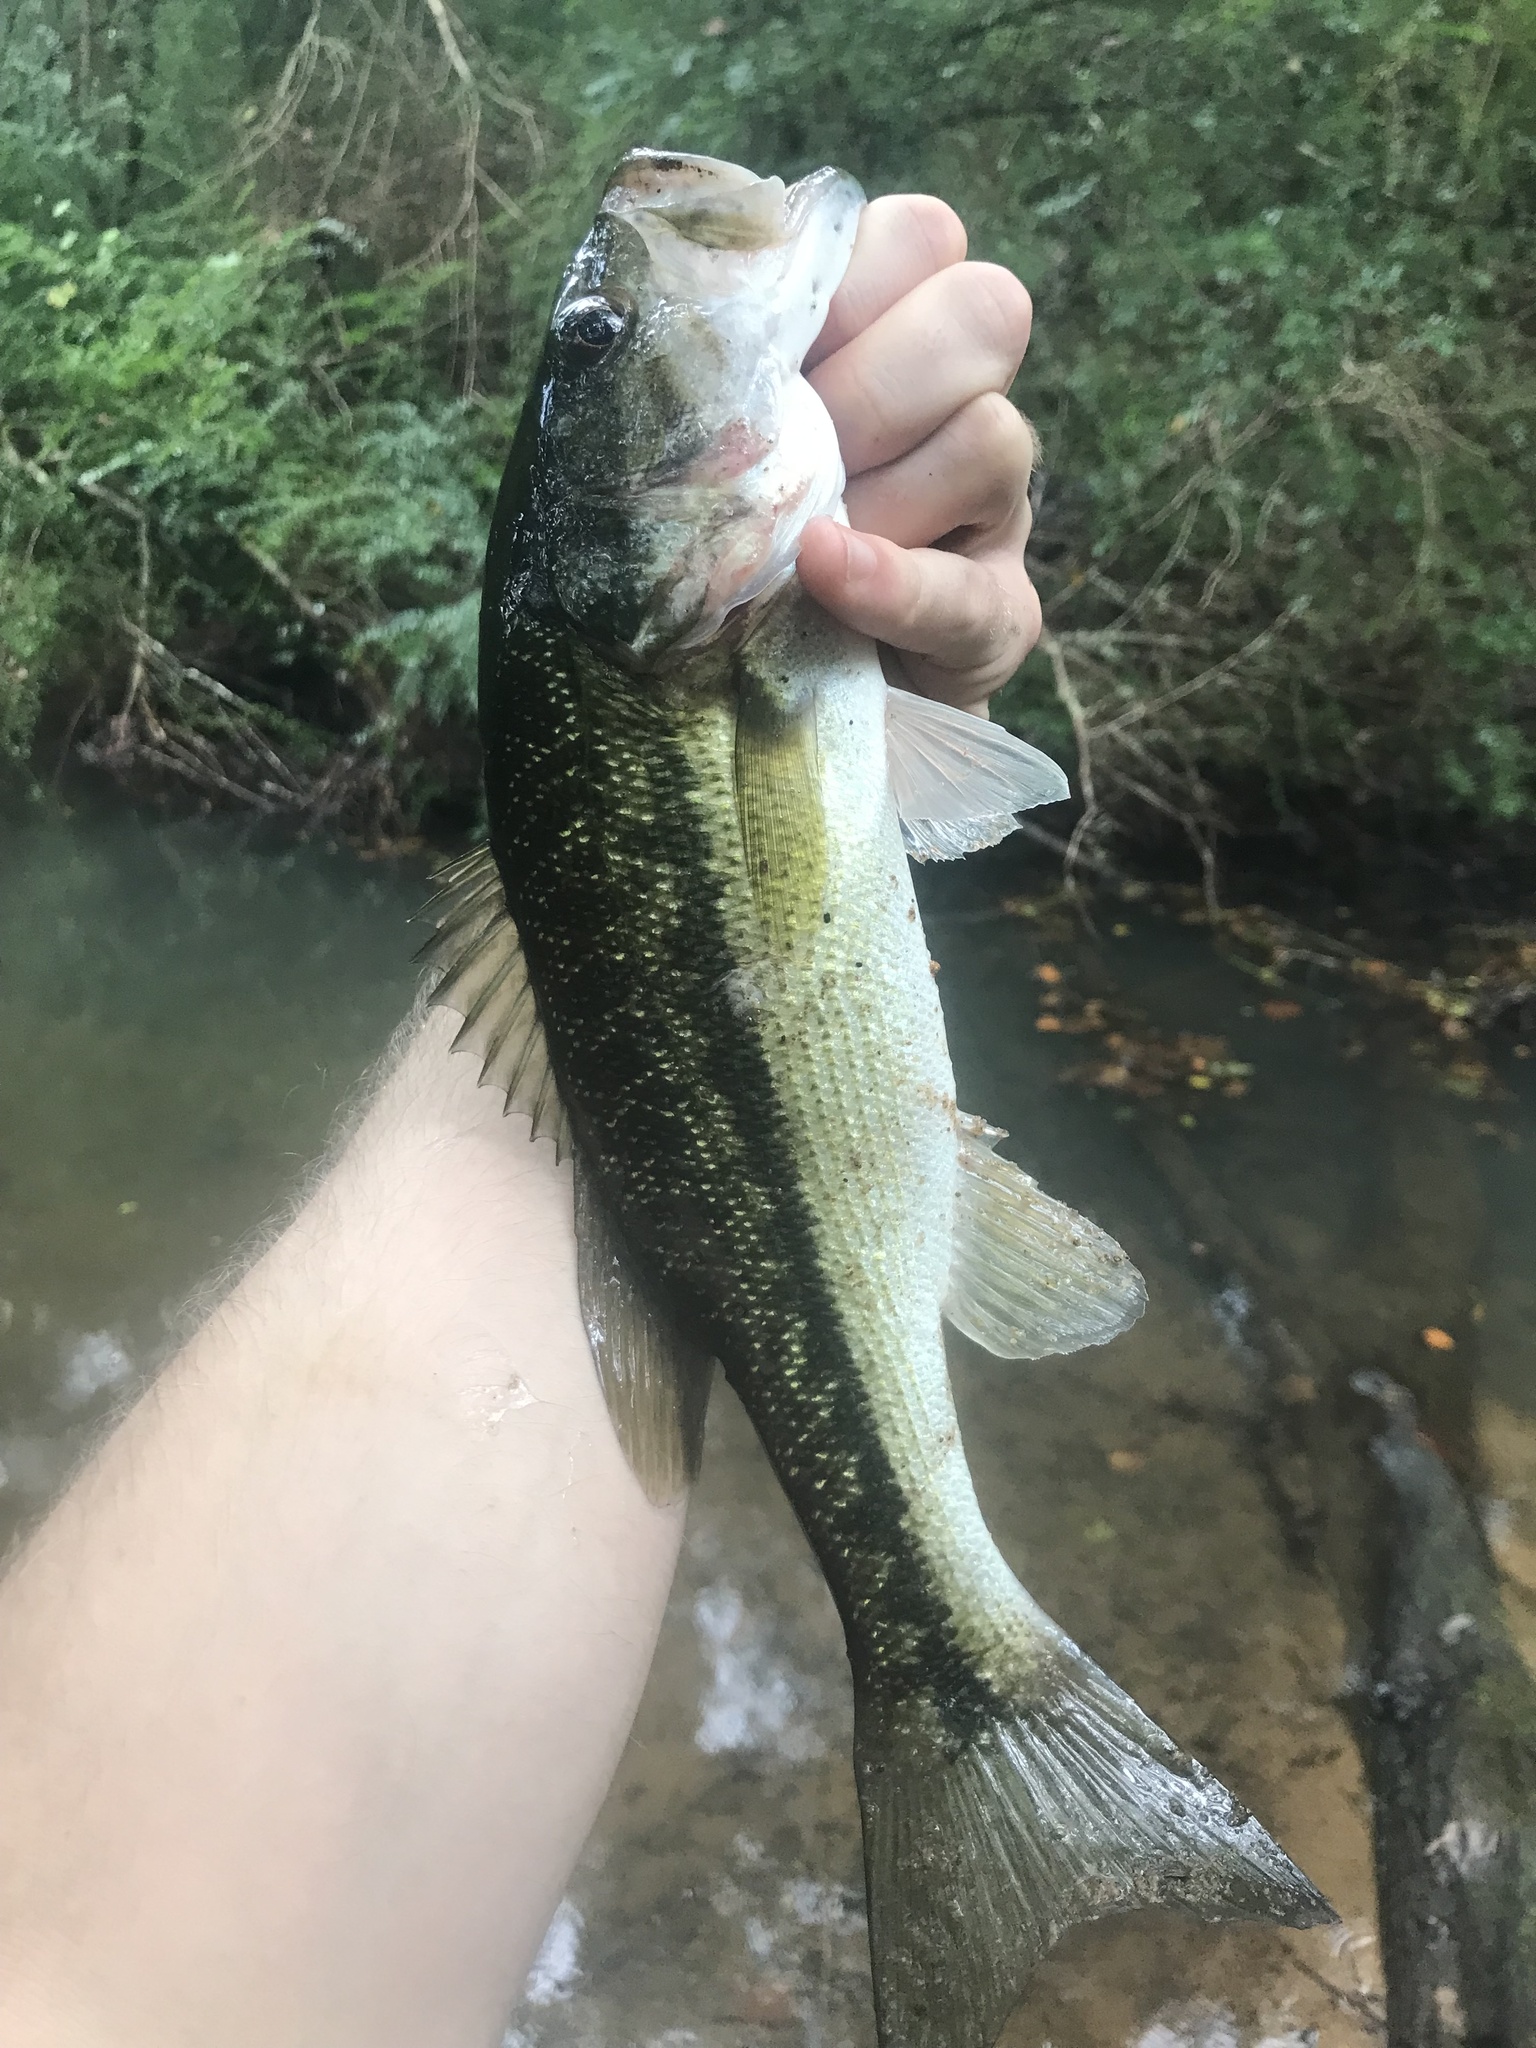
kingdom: Animalia
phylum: Chordata
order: Perciformes
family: Centrarchidae
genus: Micropterus
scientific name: Micropterus henshalli
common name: Alabama bass
